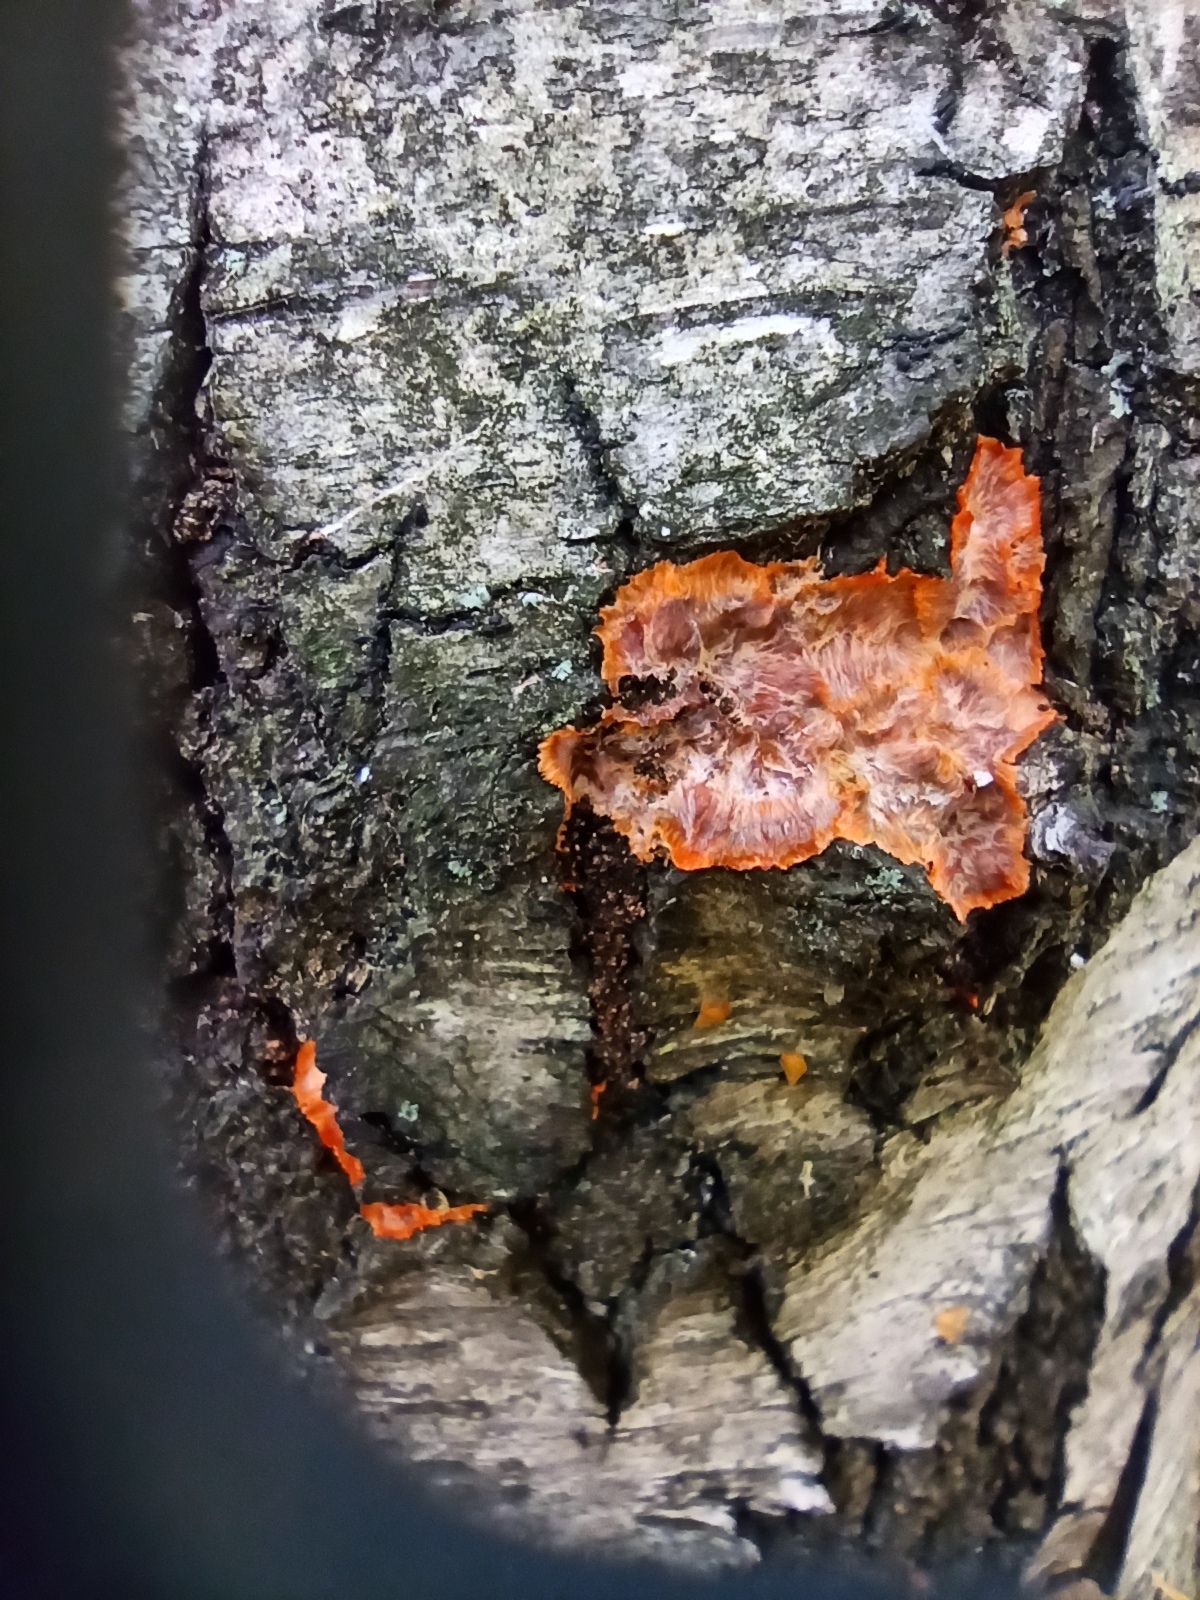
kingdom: Fungi
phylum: Basidiomycota
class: Agaricomycetes
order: Polyporales
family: Meruliaceae
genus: Phlebia
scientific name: Phlebia radiata
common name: Wrinkled crust
